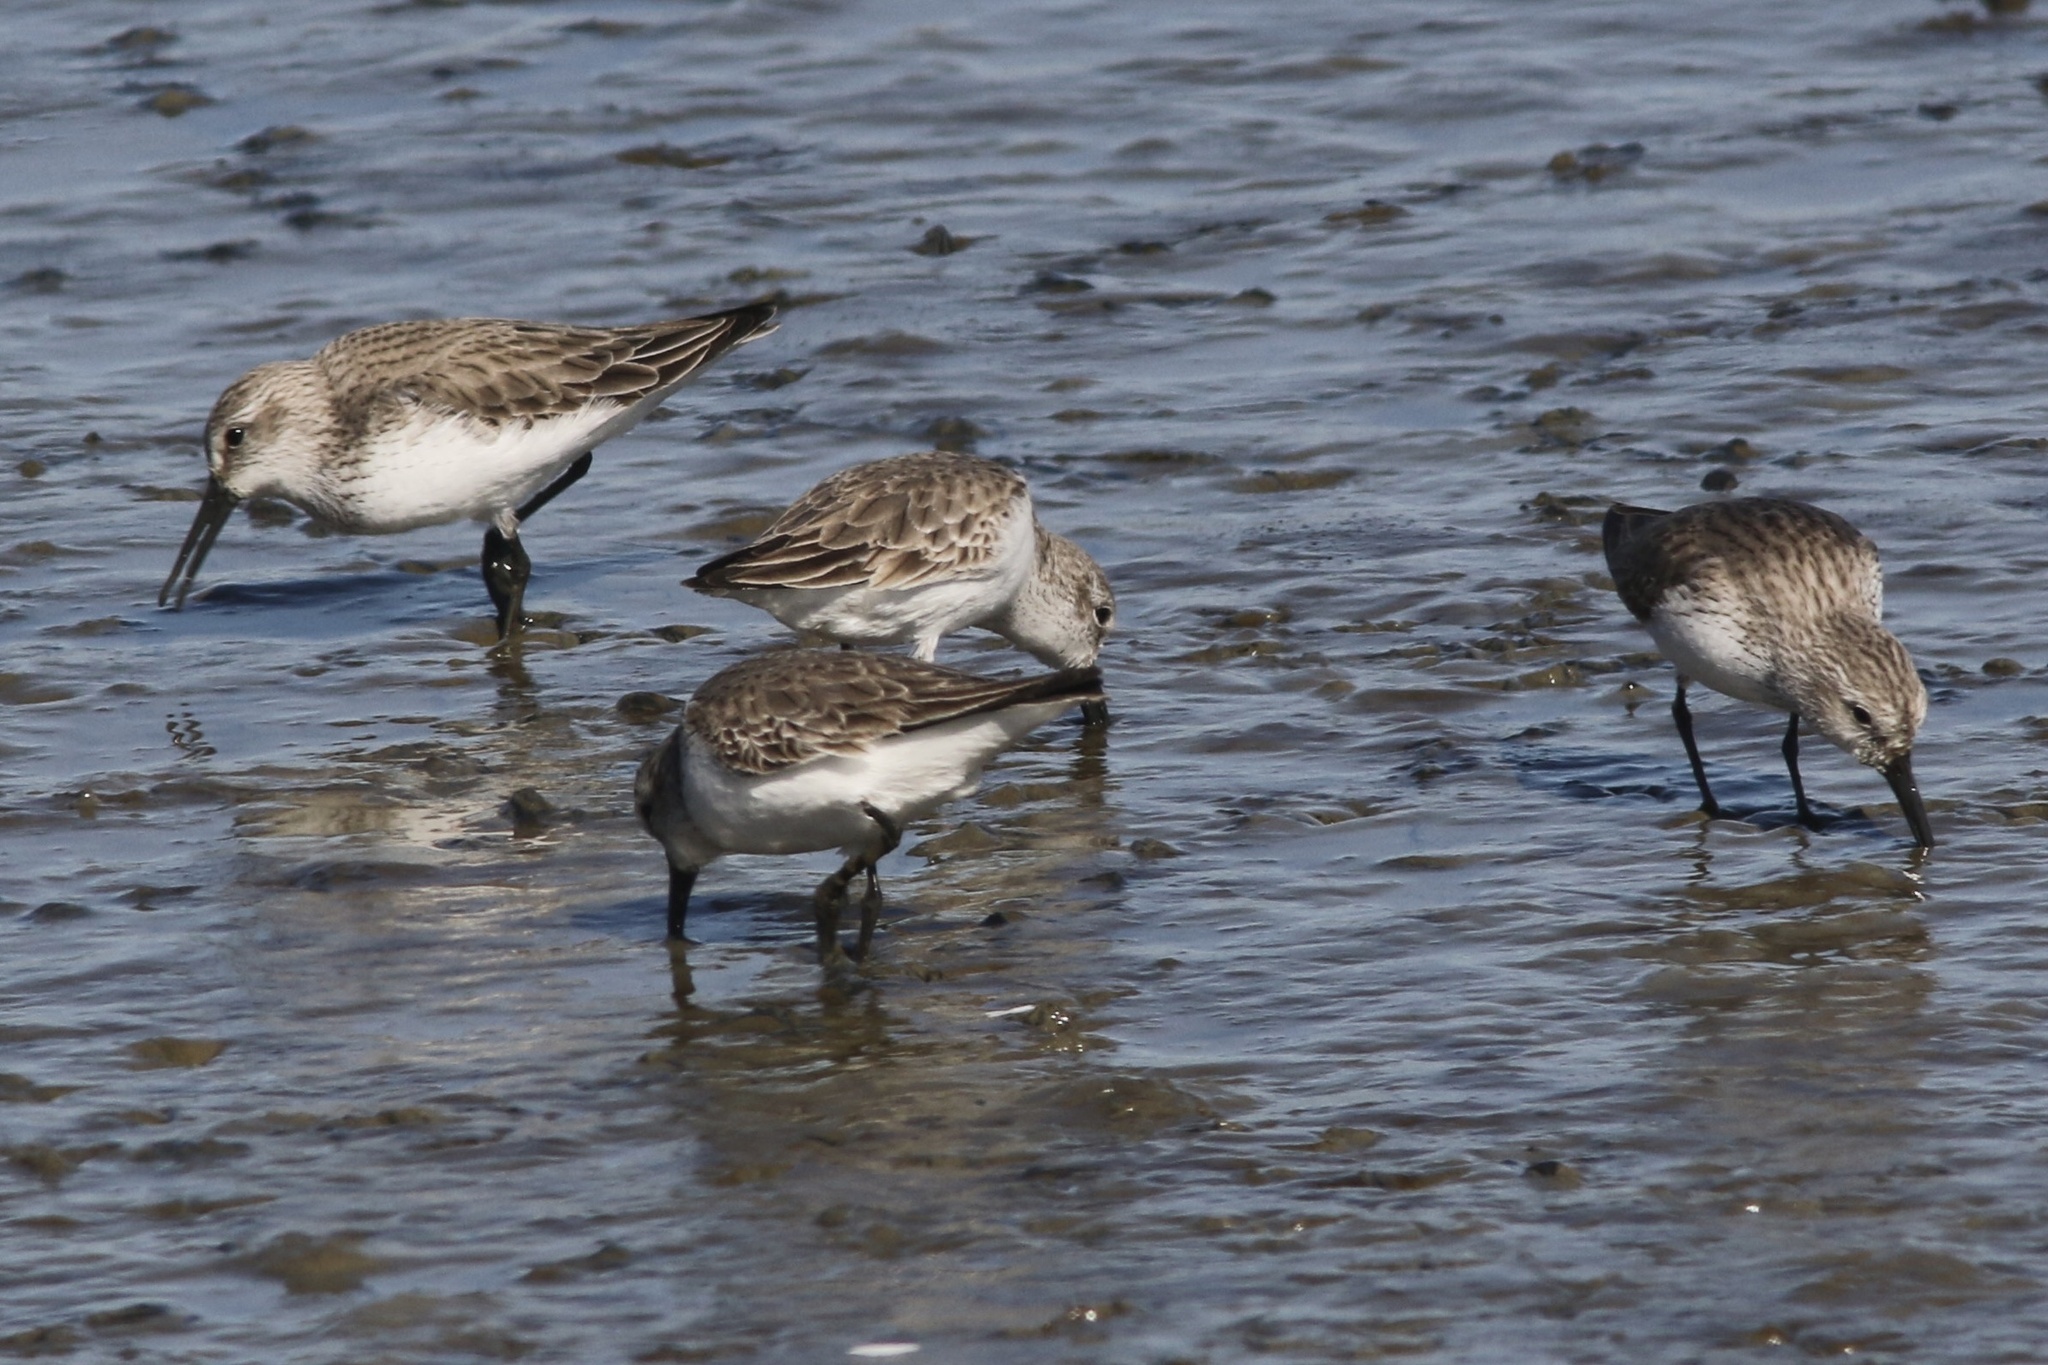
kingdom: Animalia
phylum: Chordata
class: Aves
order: Charadriiformes
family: Scolopacidae
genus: Calidris
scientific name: Calidris mauri
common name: Western sandpiper
